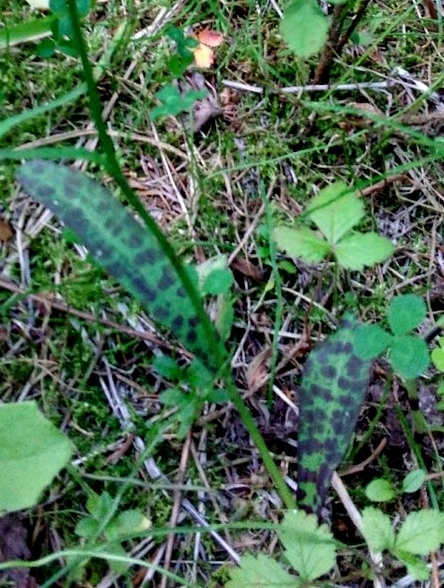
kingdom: Plantae
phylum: Tracheophyta
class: Liliopsida
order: Asparagales
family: Orchidaceae
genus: Dactylorhiza
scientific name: Dactylorhiza maculata
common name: Heath spotted-orchid
